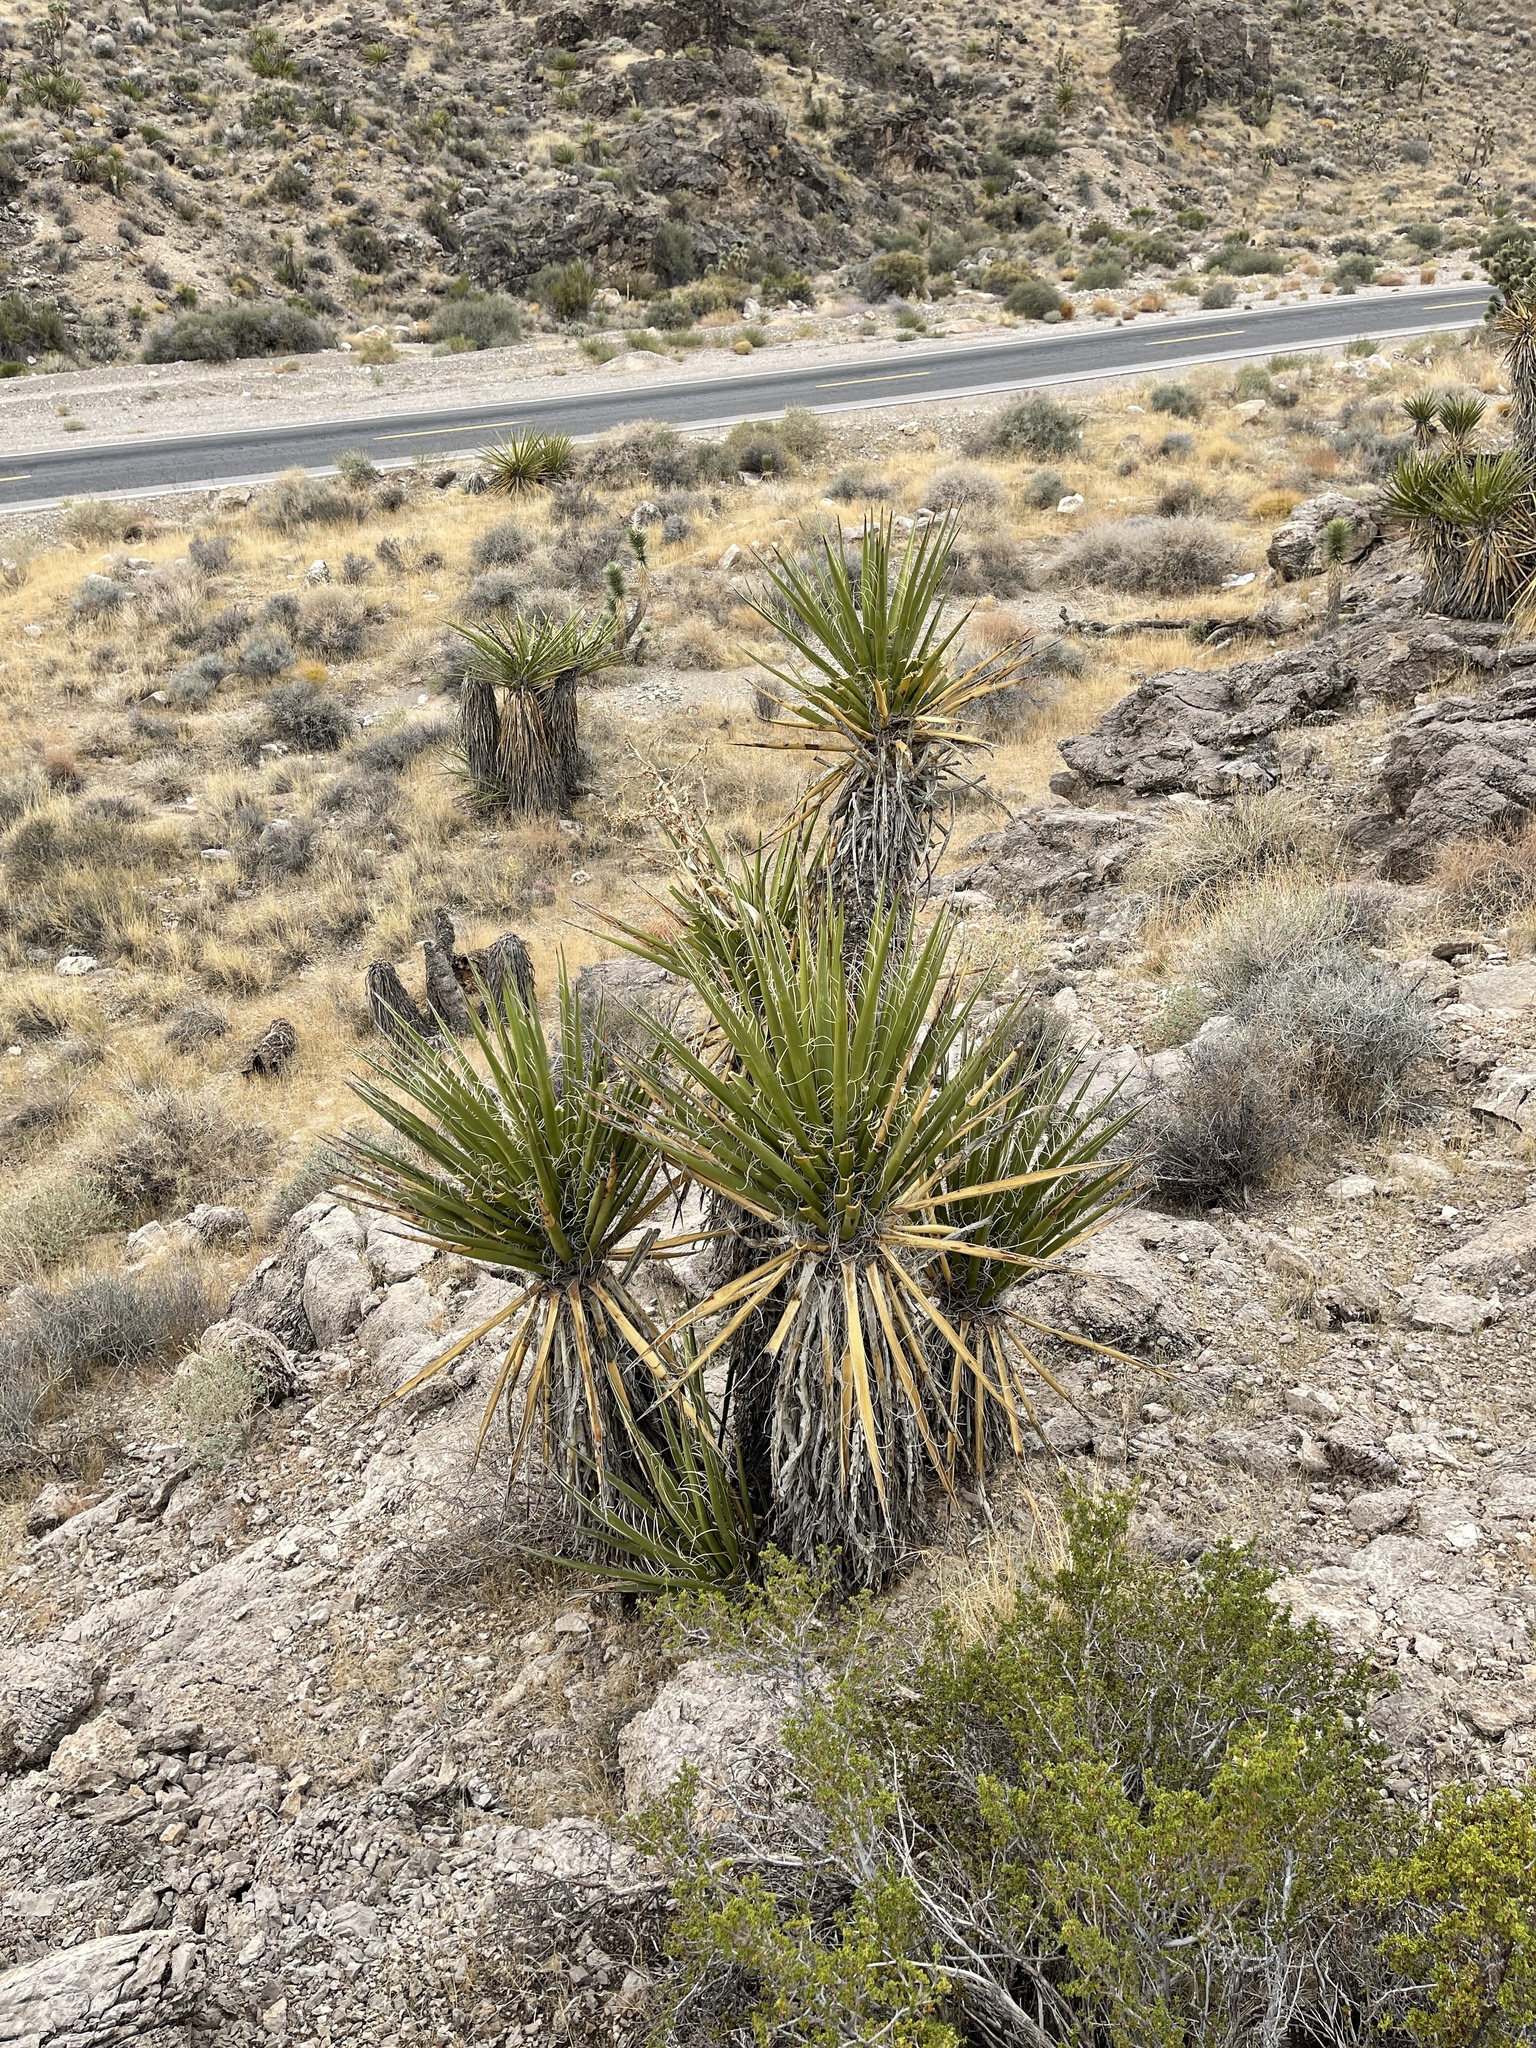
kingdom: Plantae
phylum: Tracheophyta
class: Liliopsida
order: Asparagales
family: Asparagaceae
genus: Yucca
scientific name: Yucca schidigera
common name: Mojave yucca
